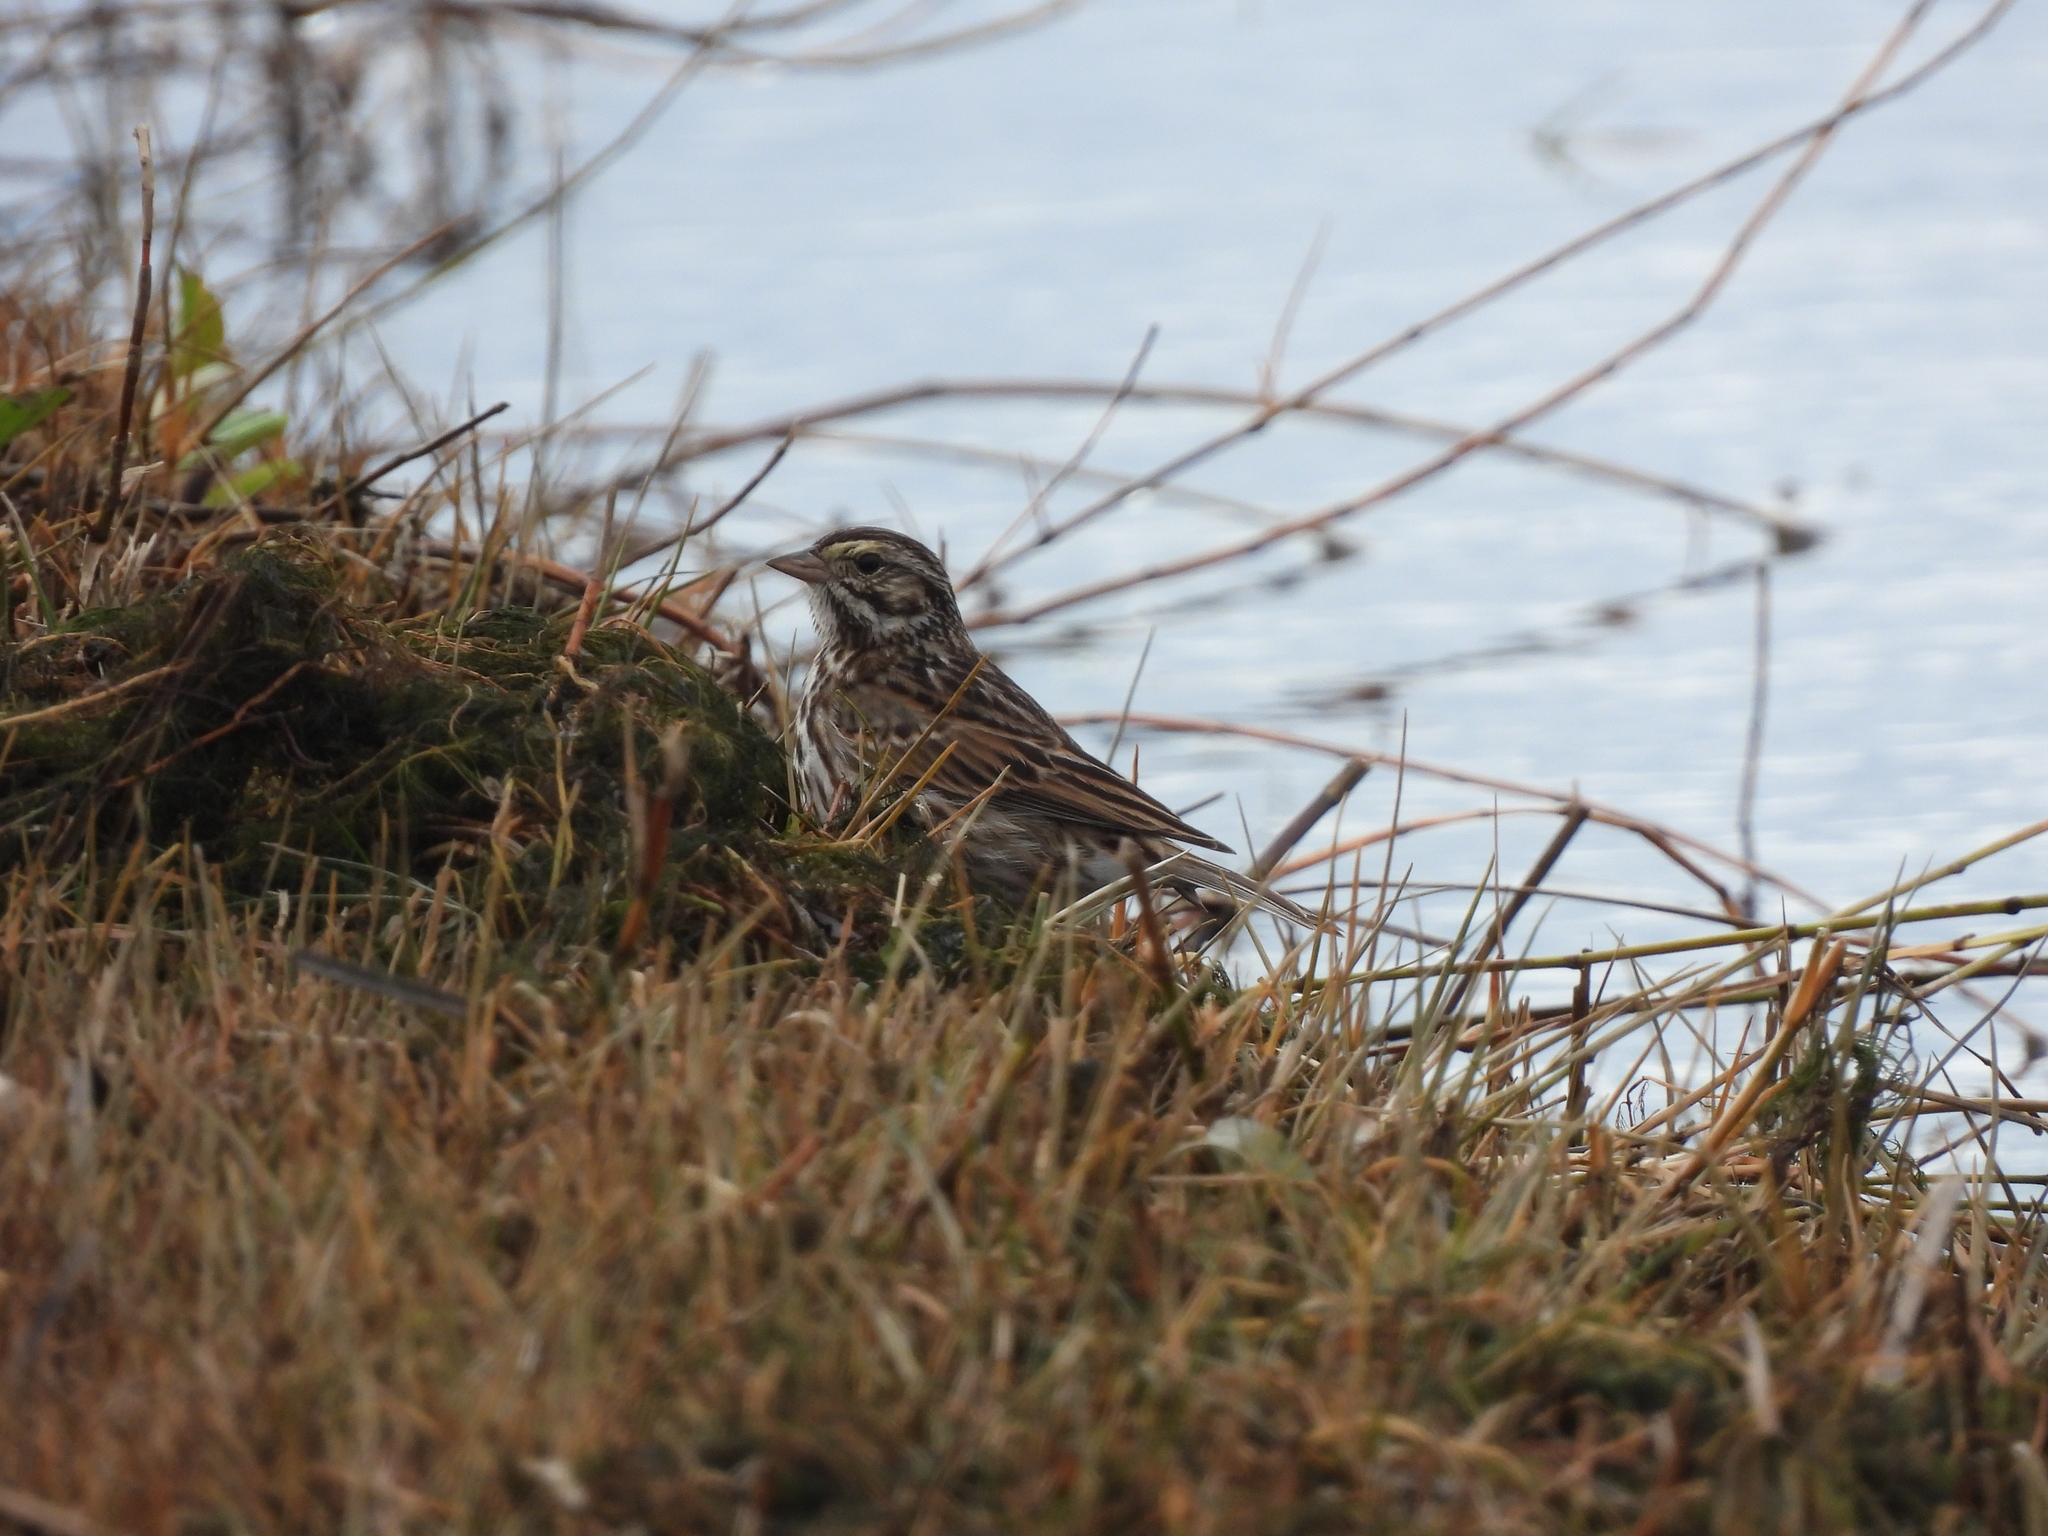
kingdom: Animalia
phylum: Chordata
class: Aves
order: Passeriformes
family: Passerellidae
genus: Passerculus
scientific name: Passerculus sandwichensis
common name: Savannah sparrow
